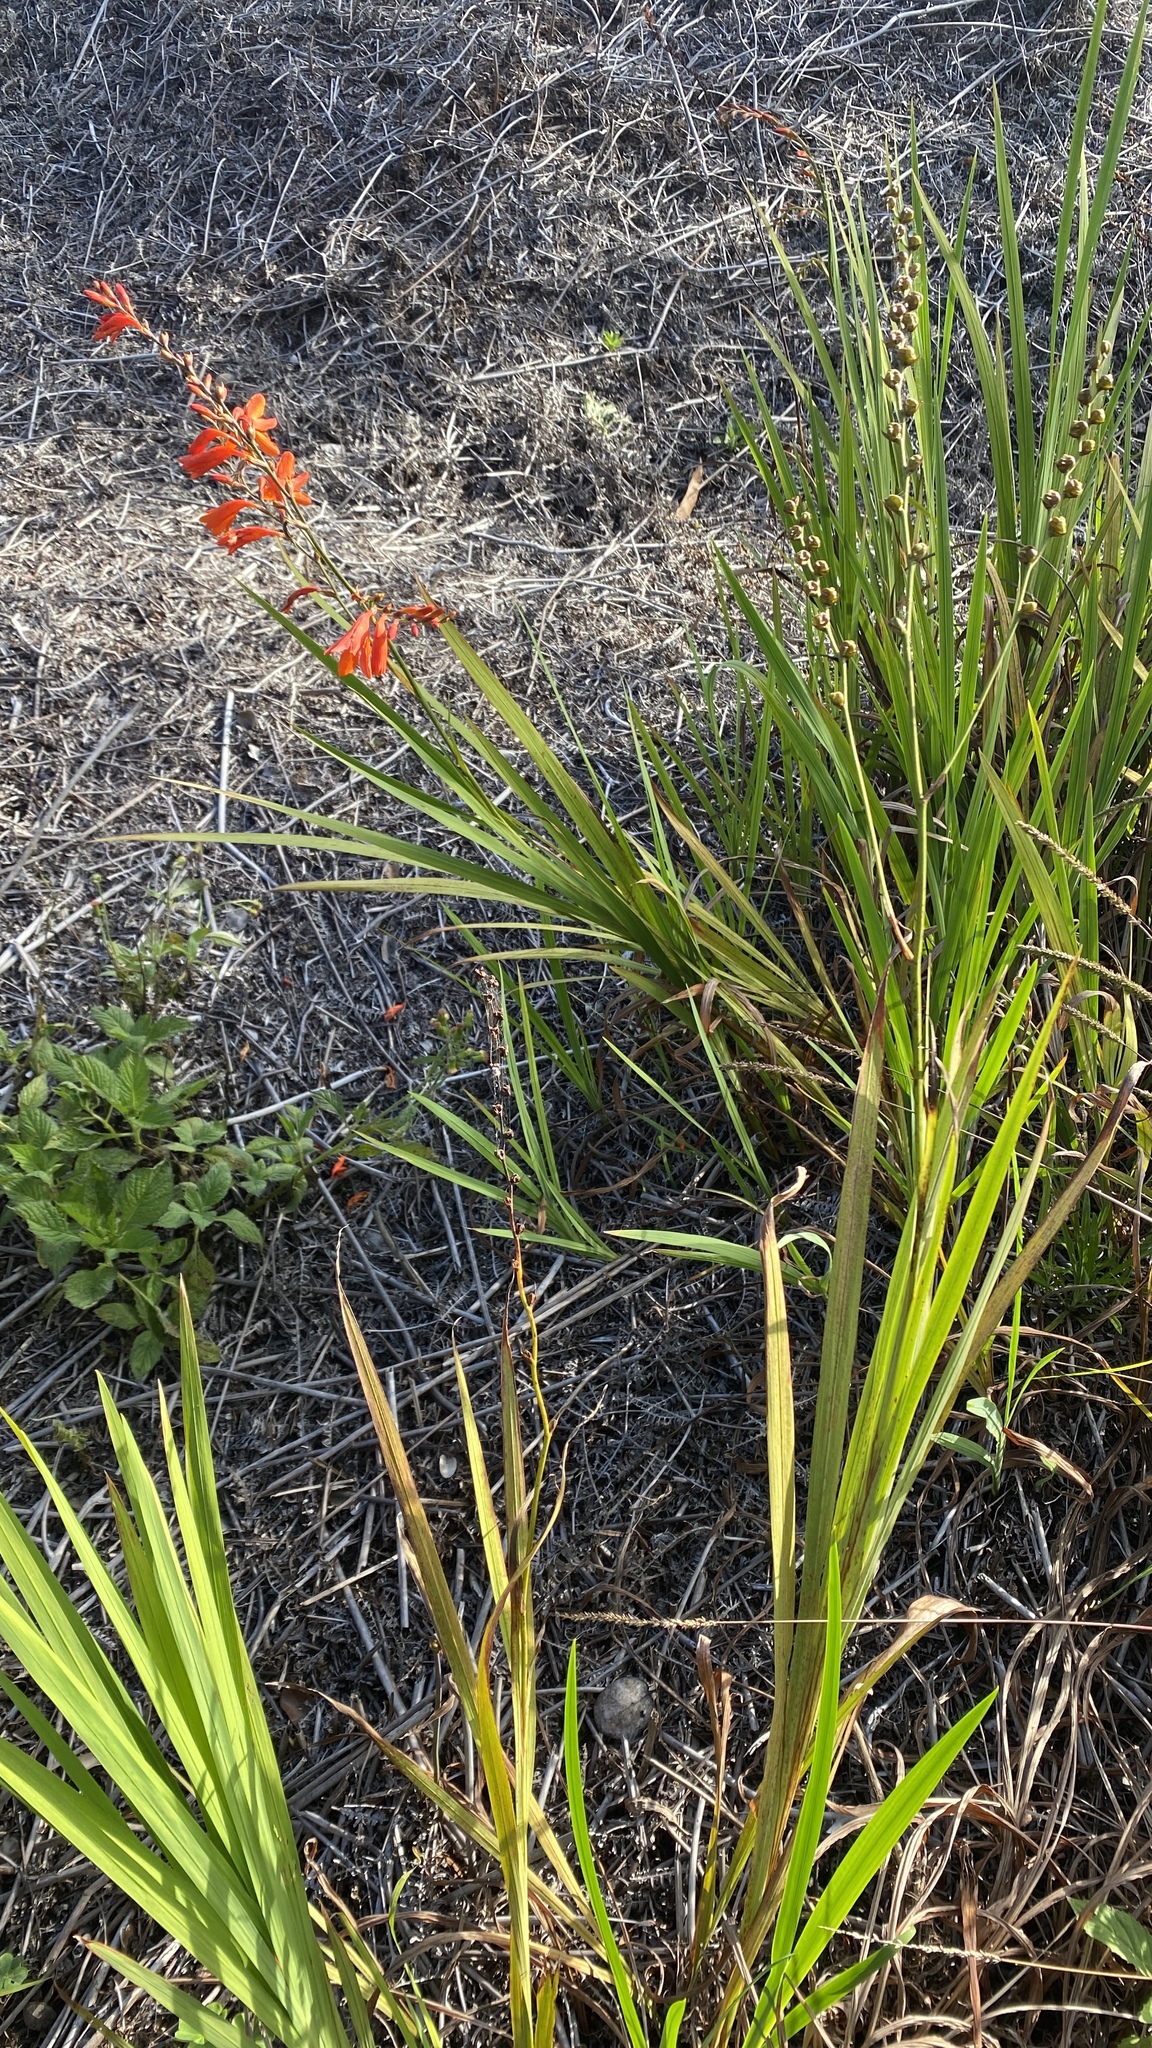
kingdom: Plantae
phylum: Tracheophyta
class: Liliopsida
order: Asparagales
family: Iridaceae
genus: Crocosmia
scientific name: Crocosmia crocosmiiflora
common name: Montbretia
